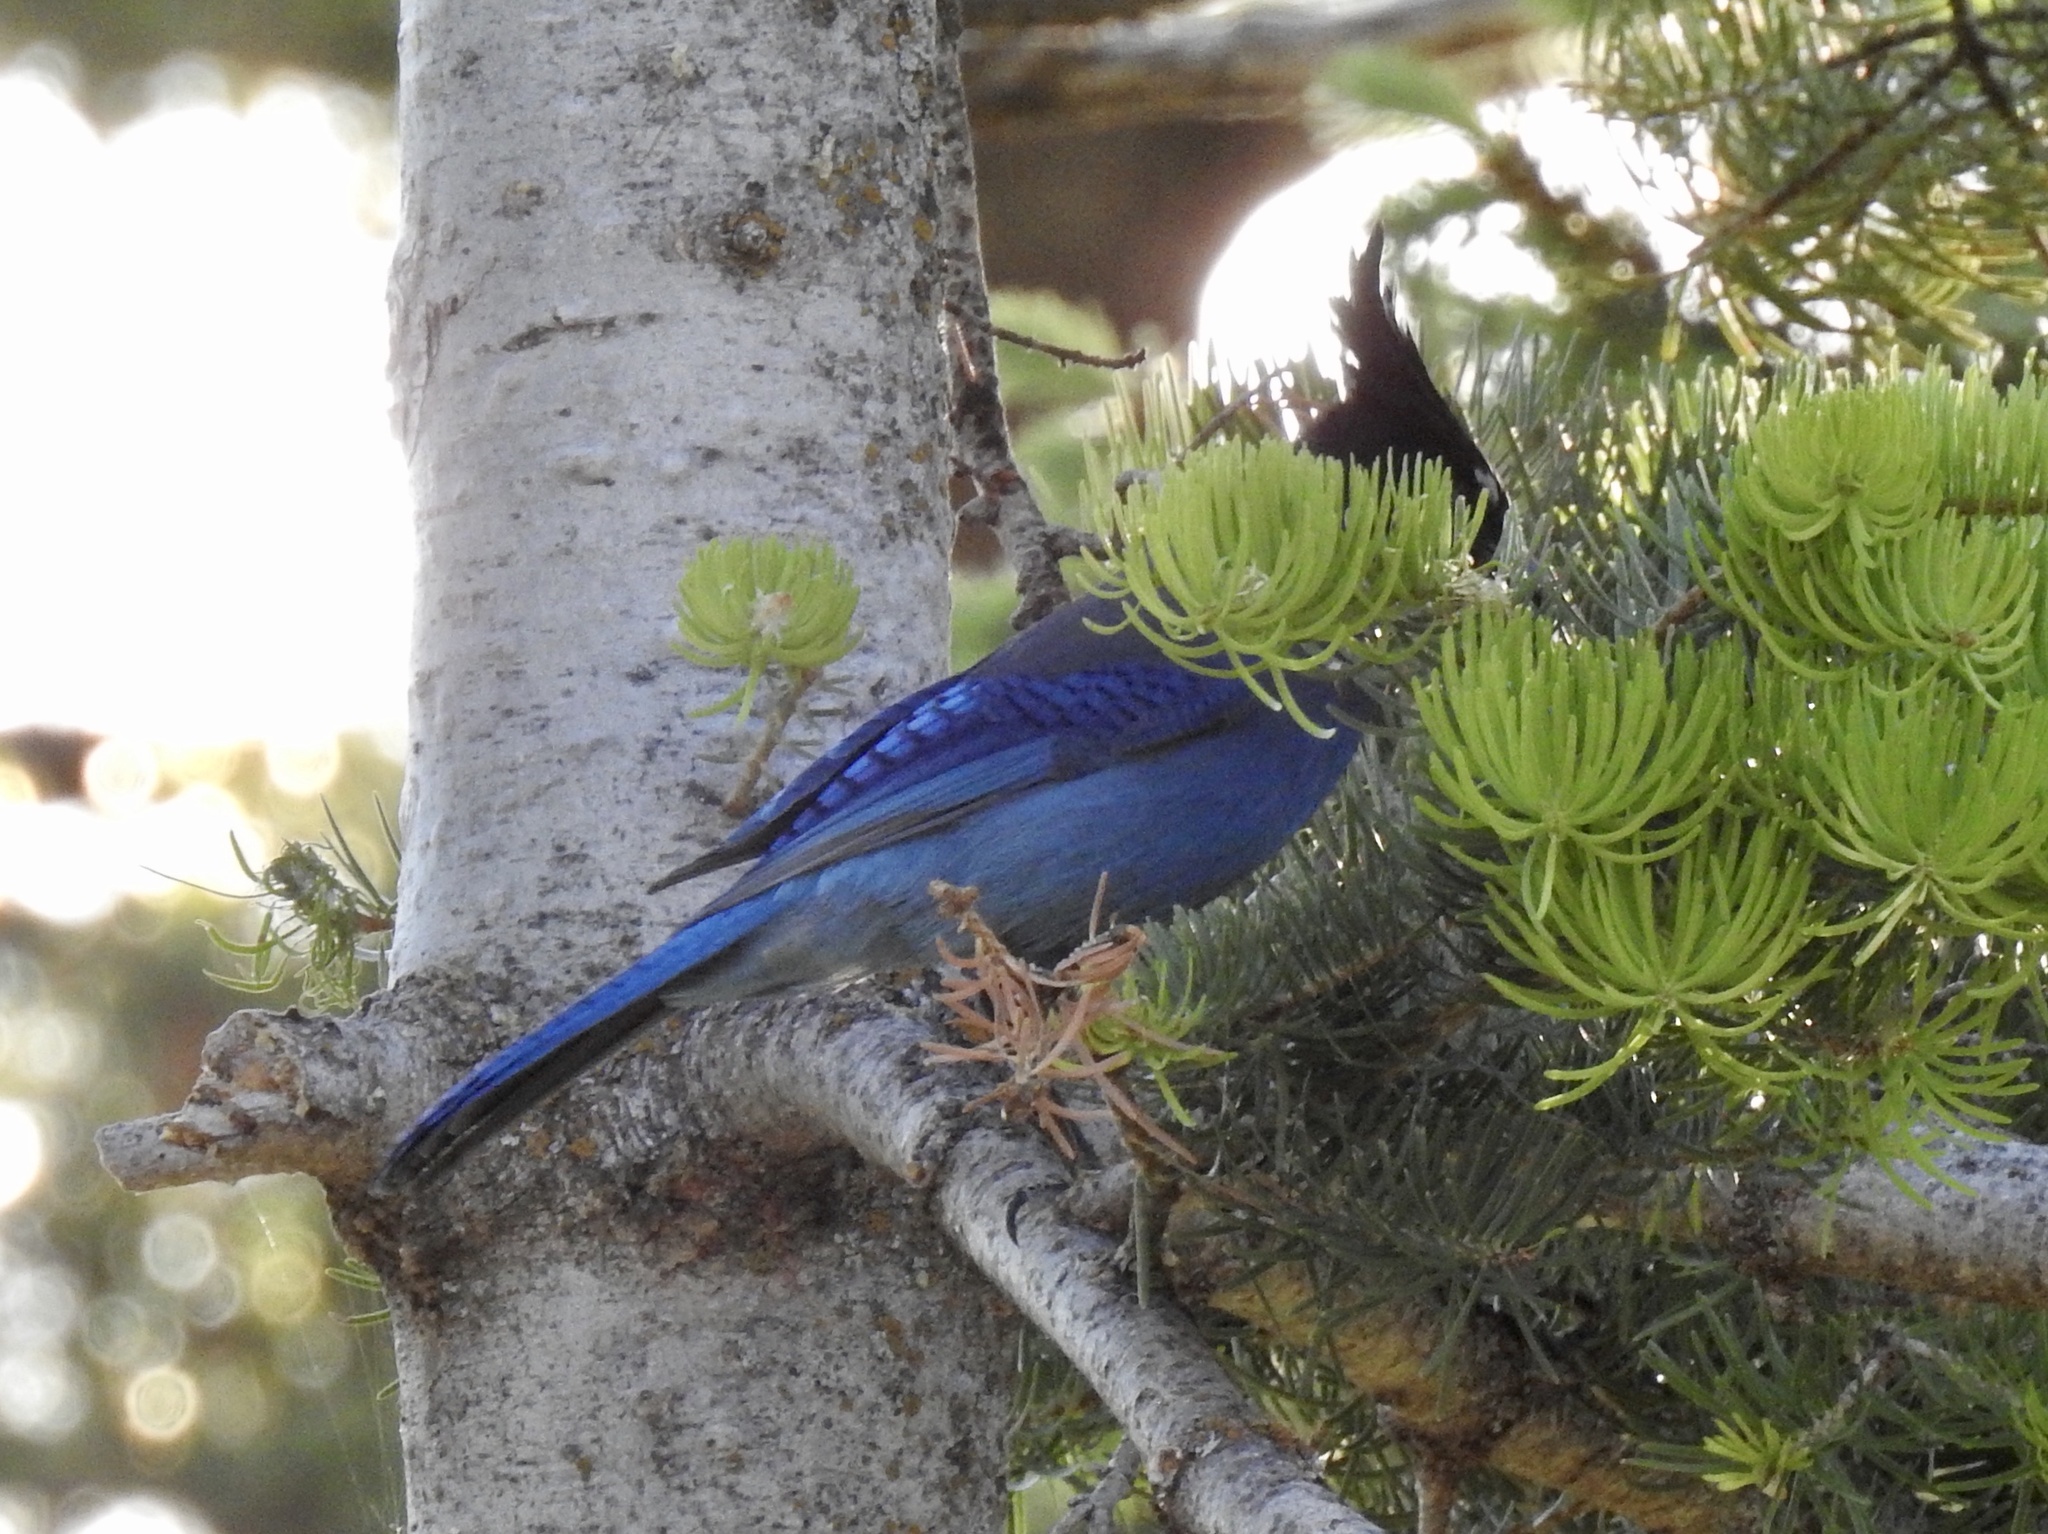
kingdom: Animalia
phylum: Chordata
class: Aves
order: Passeriformes
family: Corvidae
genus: Cyanocitta
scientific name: Cyanocitta stelleri
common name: Steller's jay
